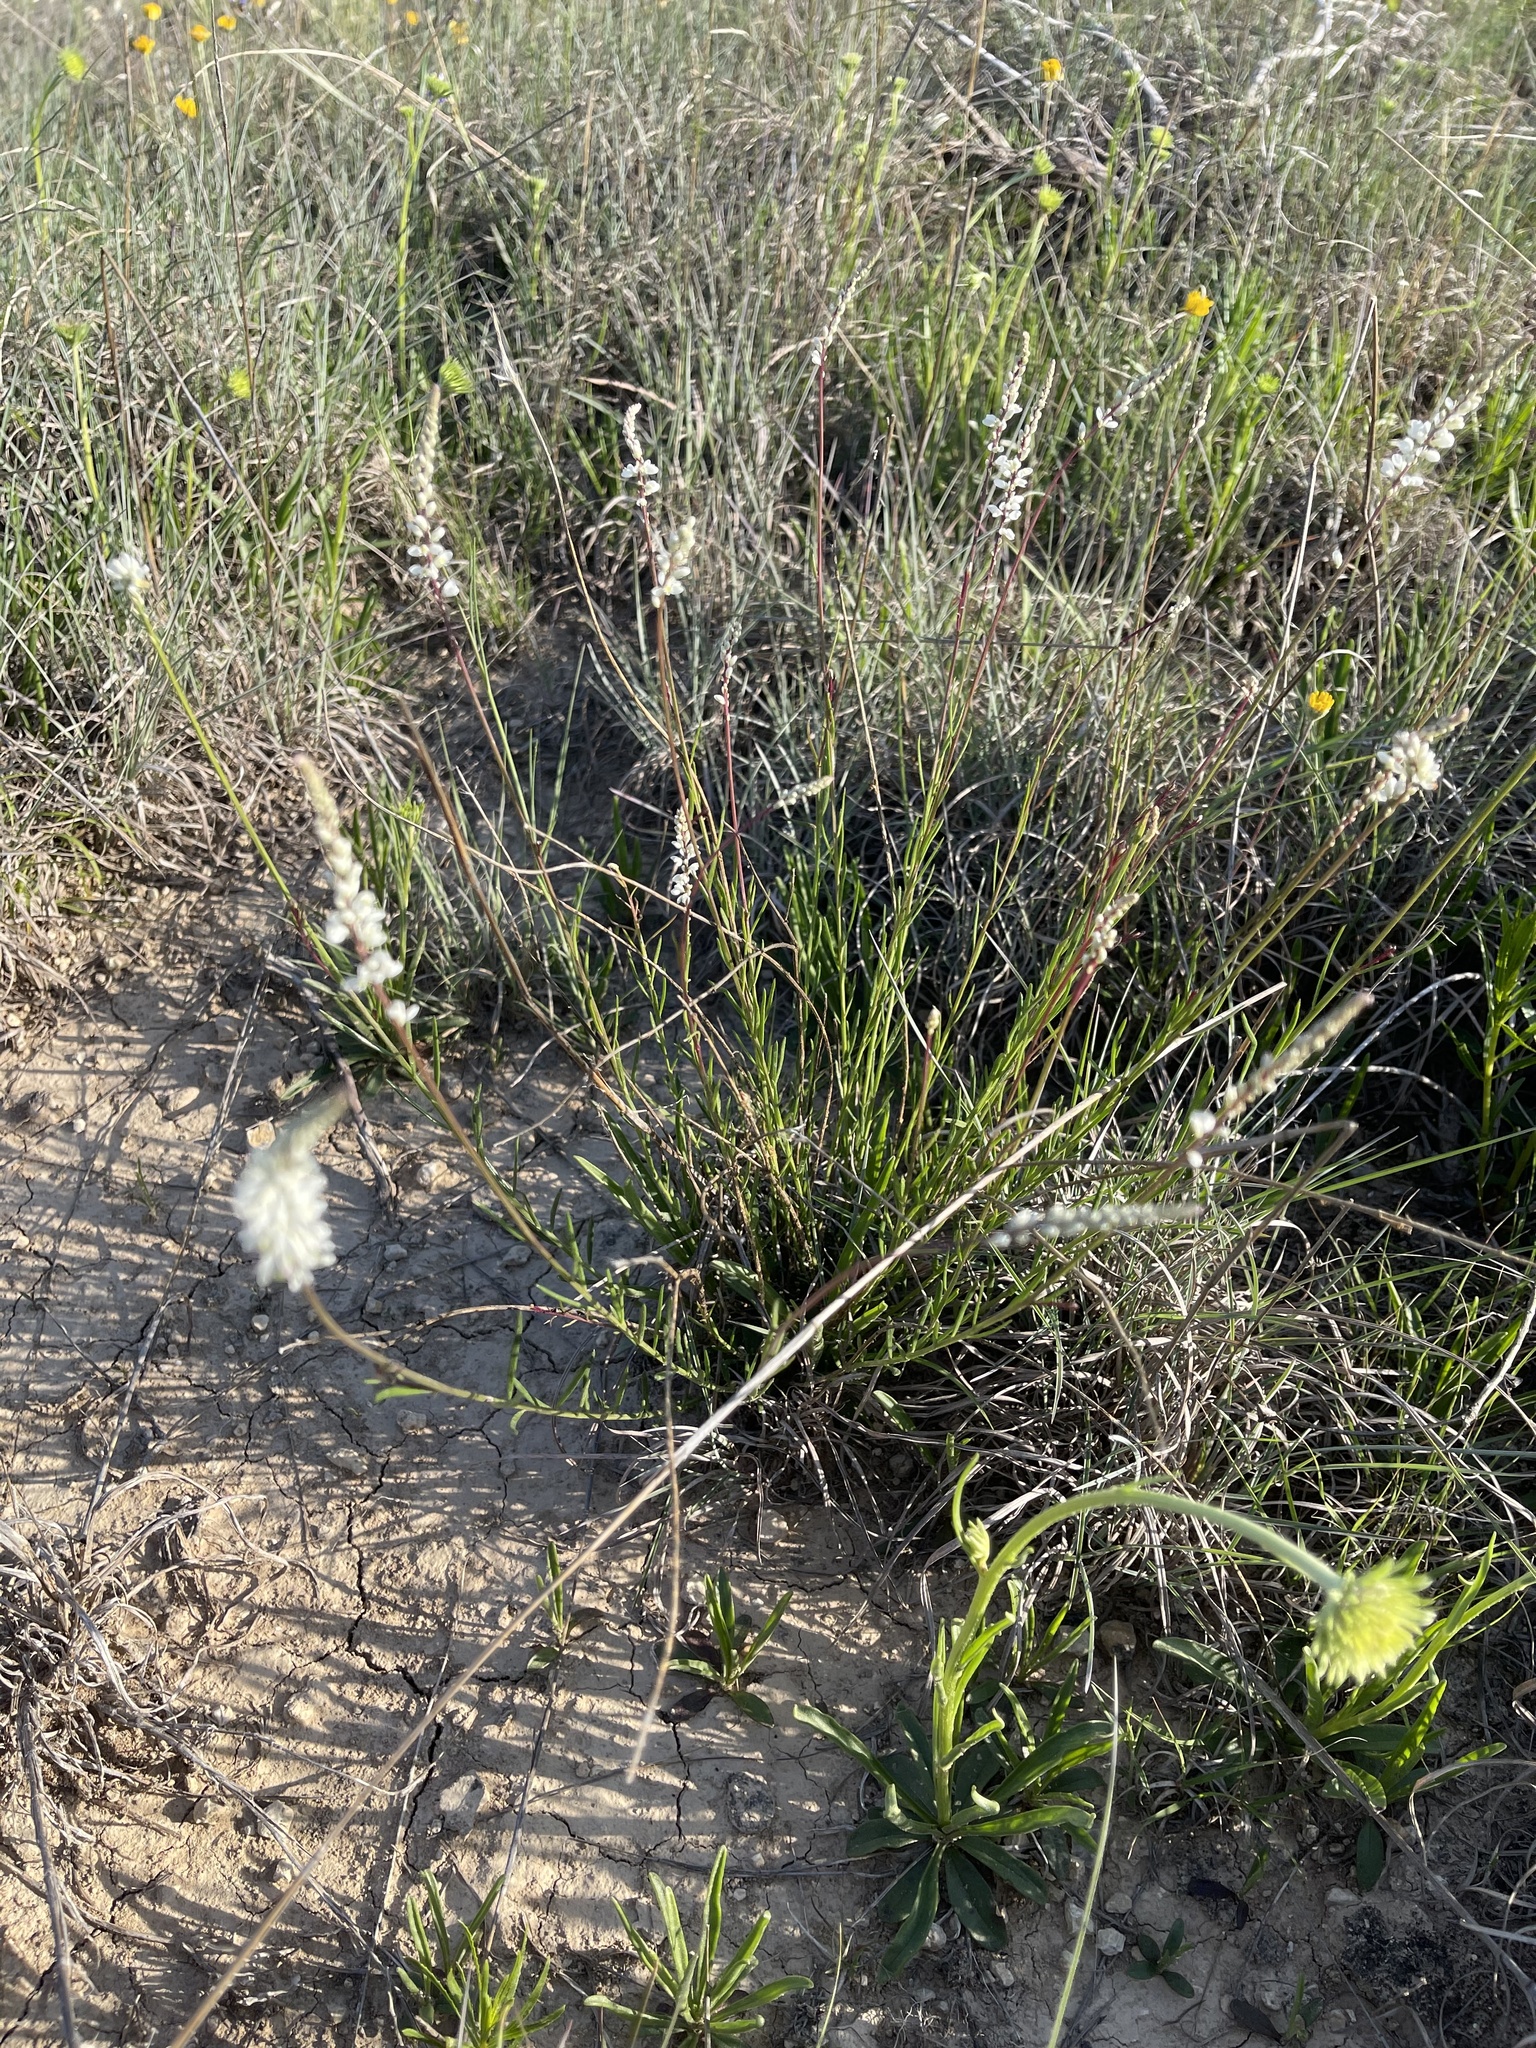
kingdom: Plantae
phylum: Tracheophyta
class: Magnoliopsida
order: Fabales
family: Polygalaceae
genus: Polygala
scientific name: Polygala alba
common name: White milkwort
